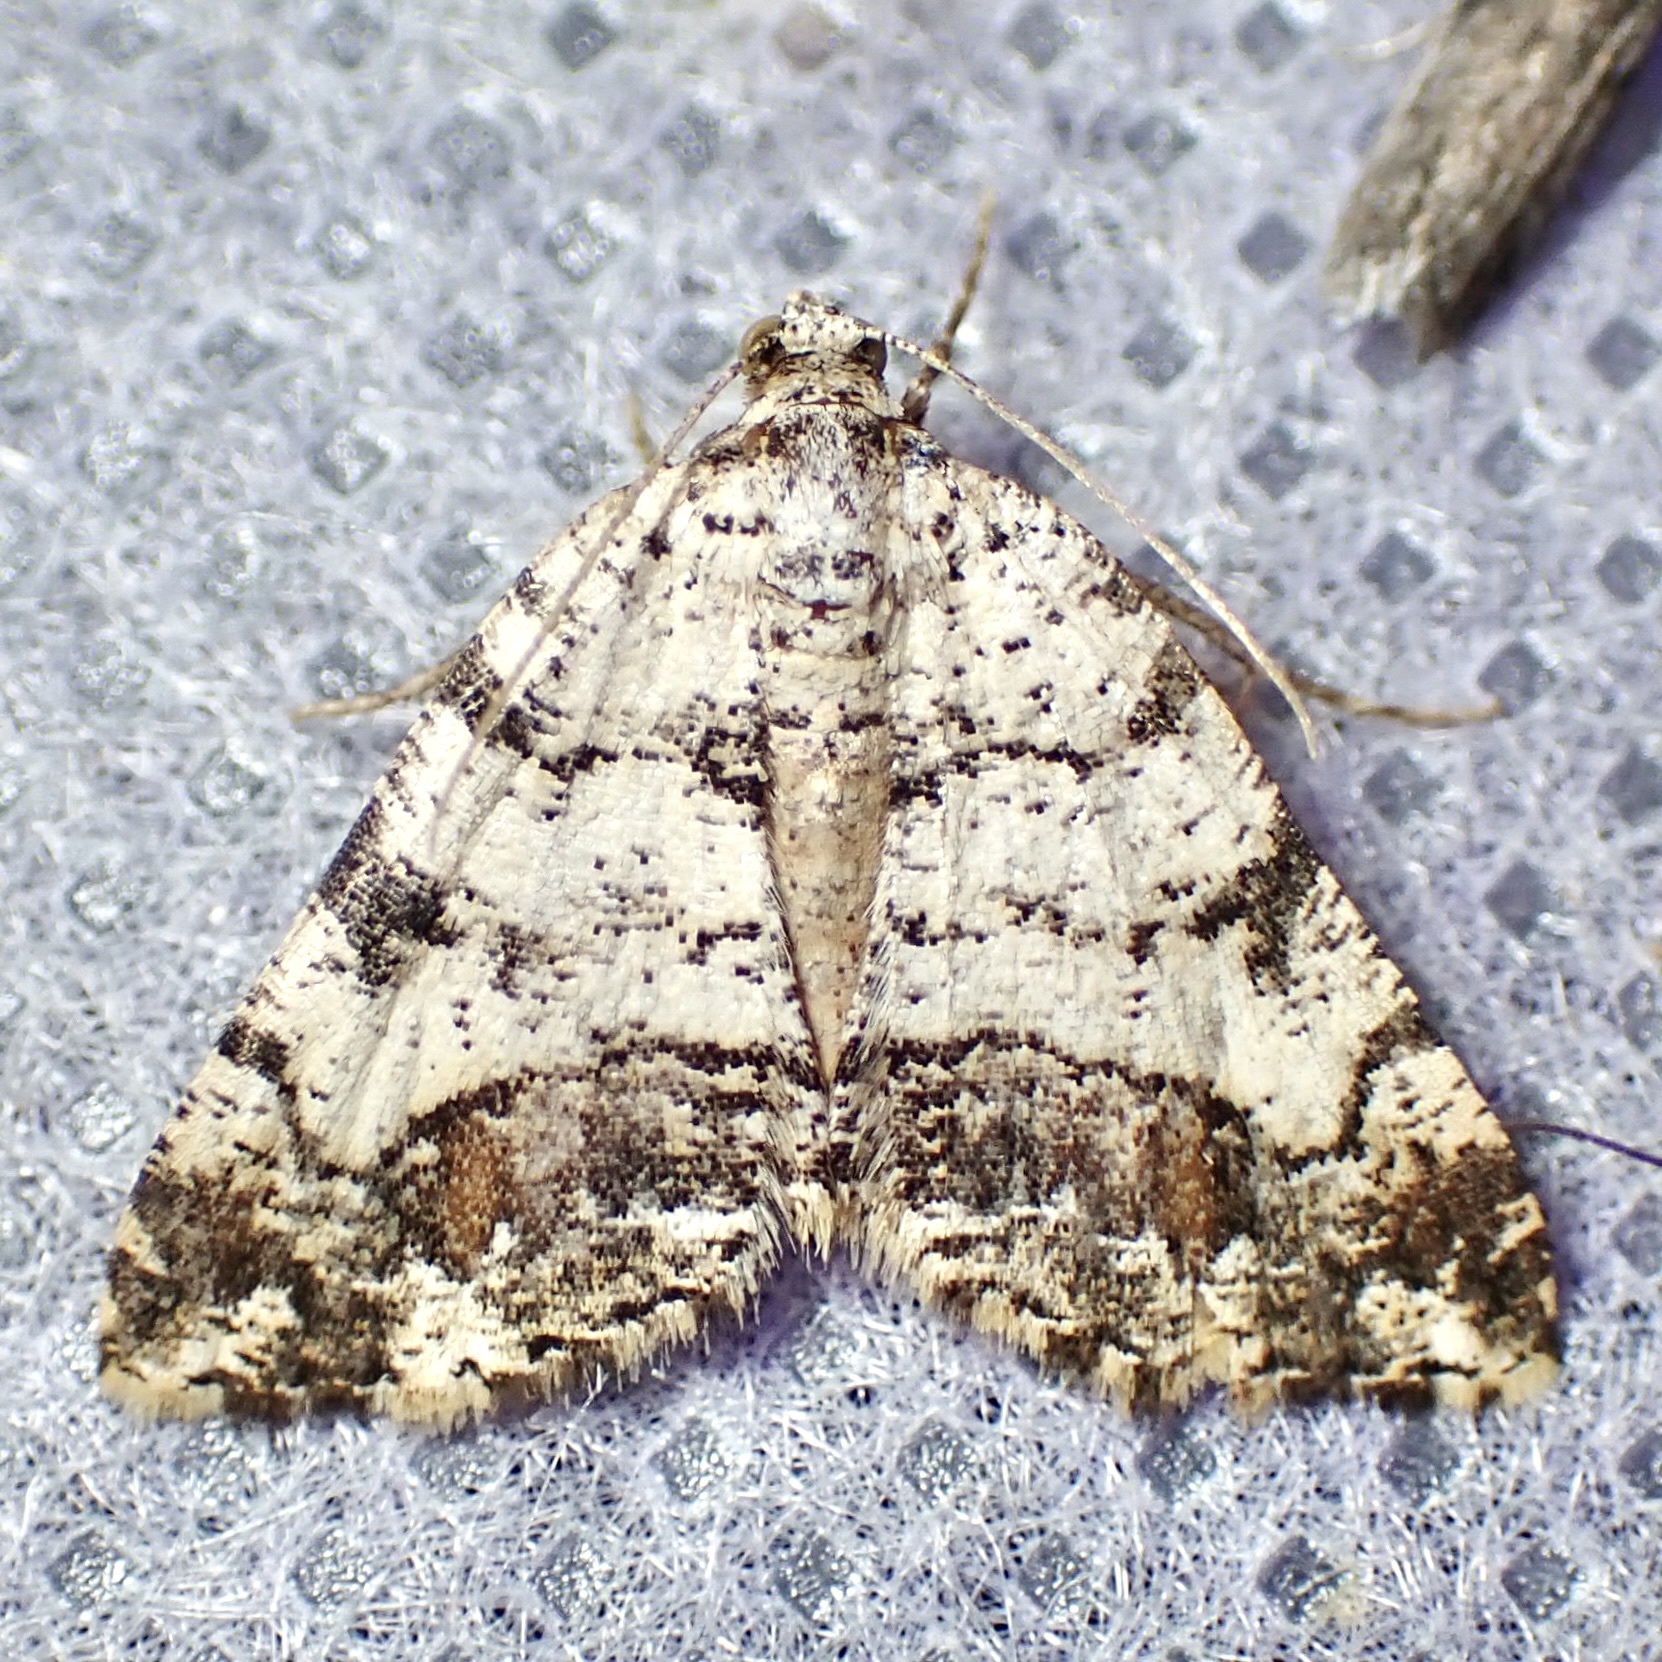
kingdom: Animalia
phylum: Arthropoda
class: Insecta
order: Lepidoptera
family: Geometridae
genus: Macaria
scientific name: Macaria deceptrix
